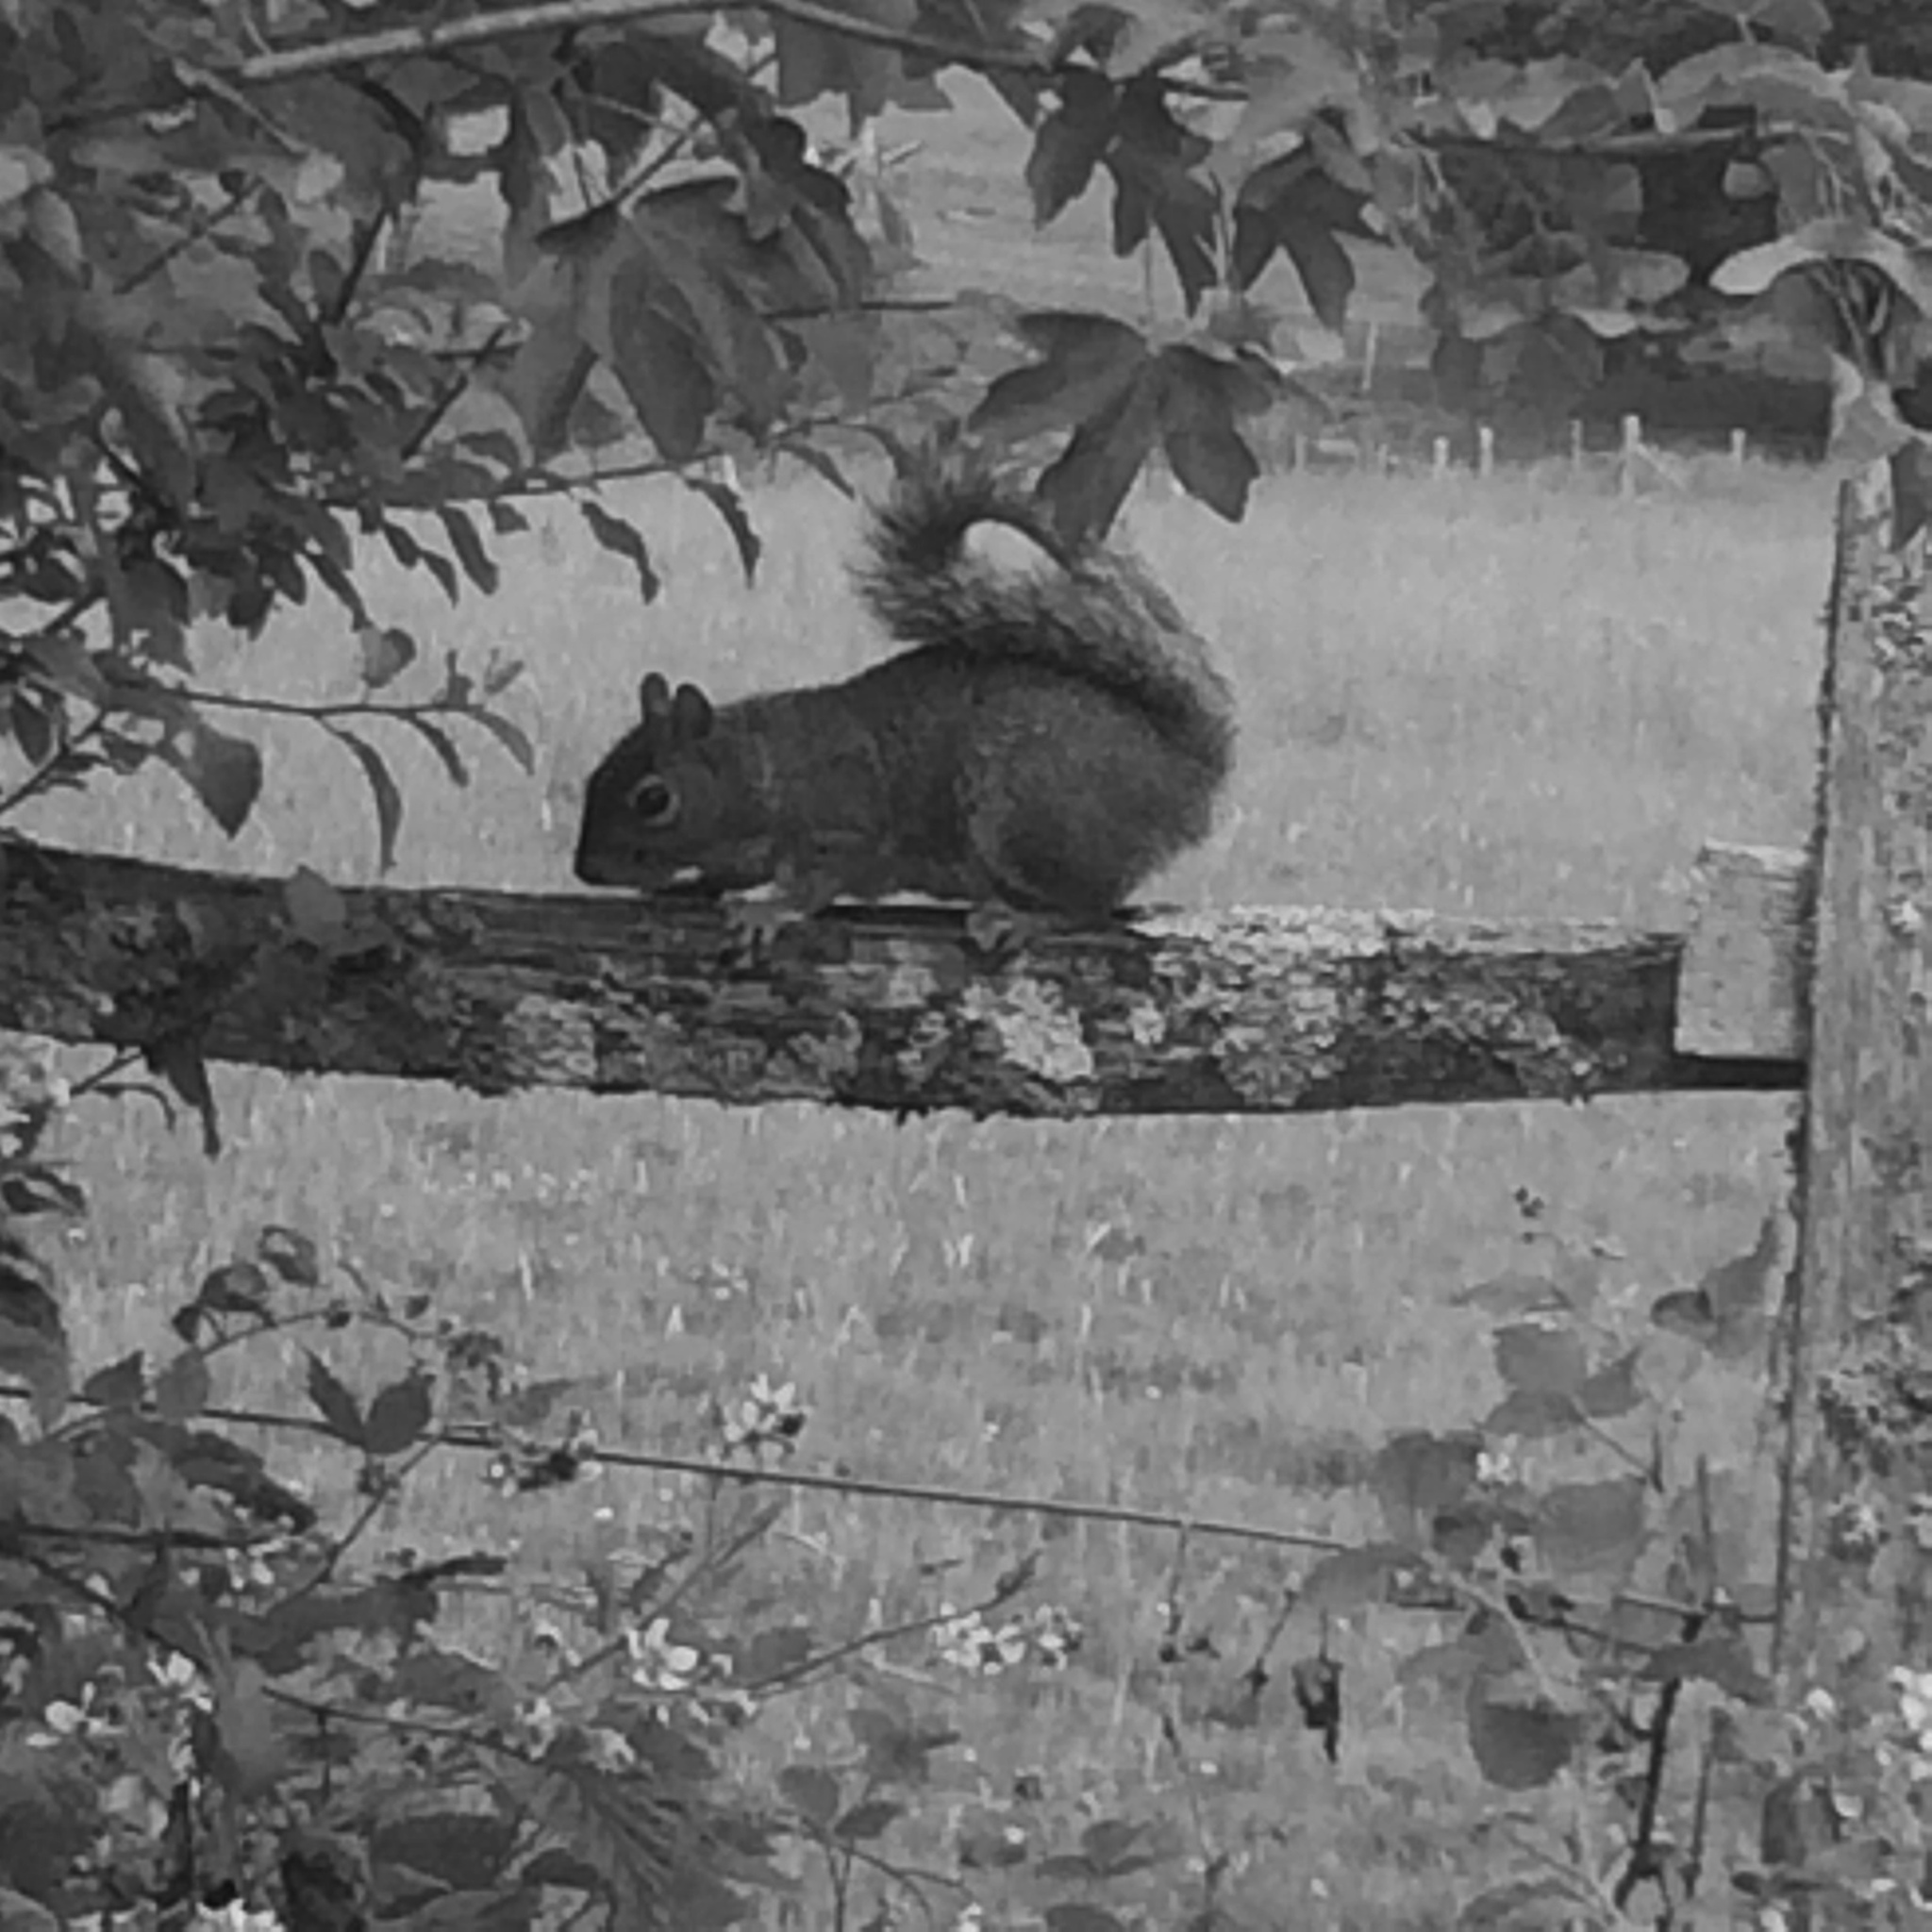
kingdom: Animalia
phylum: Chordata
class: Mammalia
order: Rodentia
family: Sciuridae
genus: Sciurus
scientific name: Sciurus carolinensis
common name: Eastern gray squirrel
